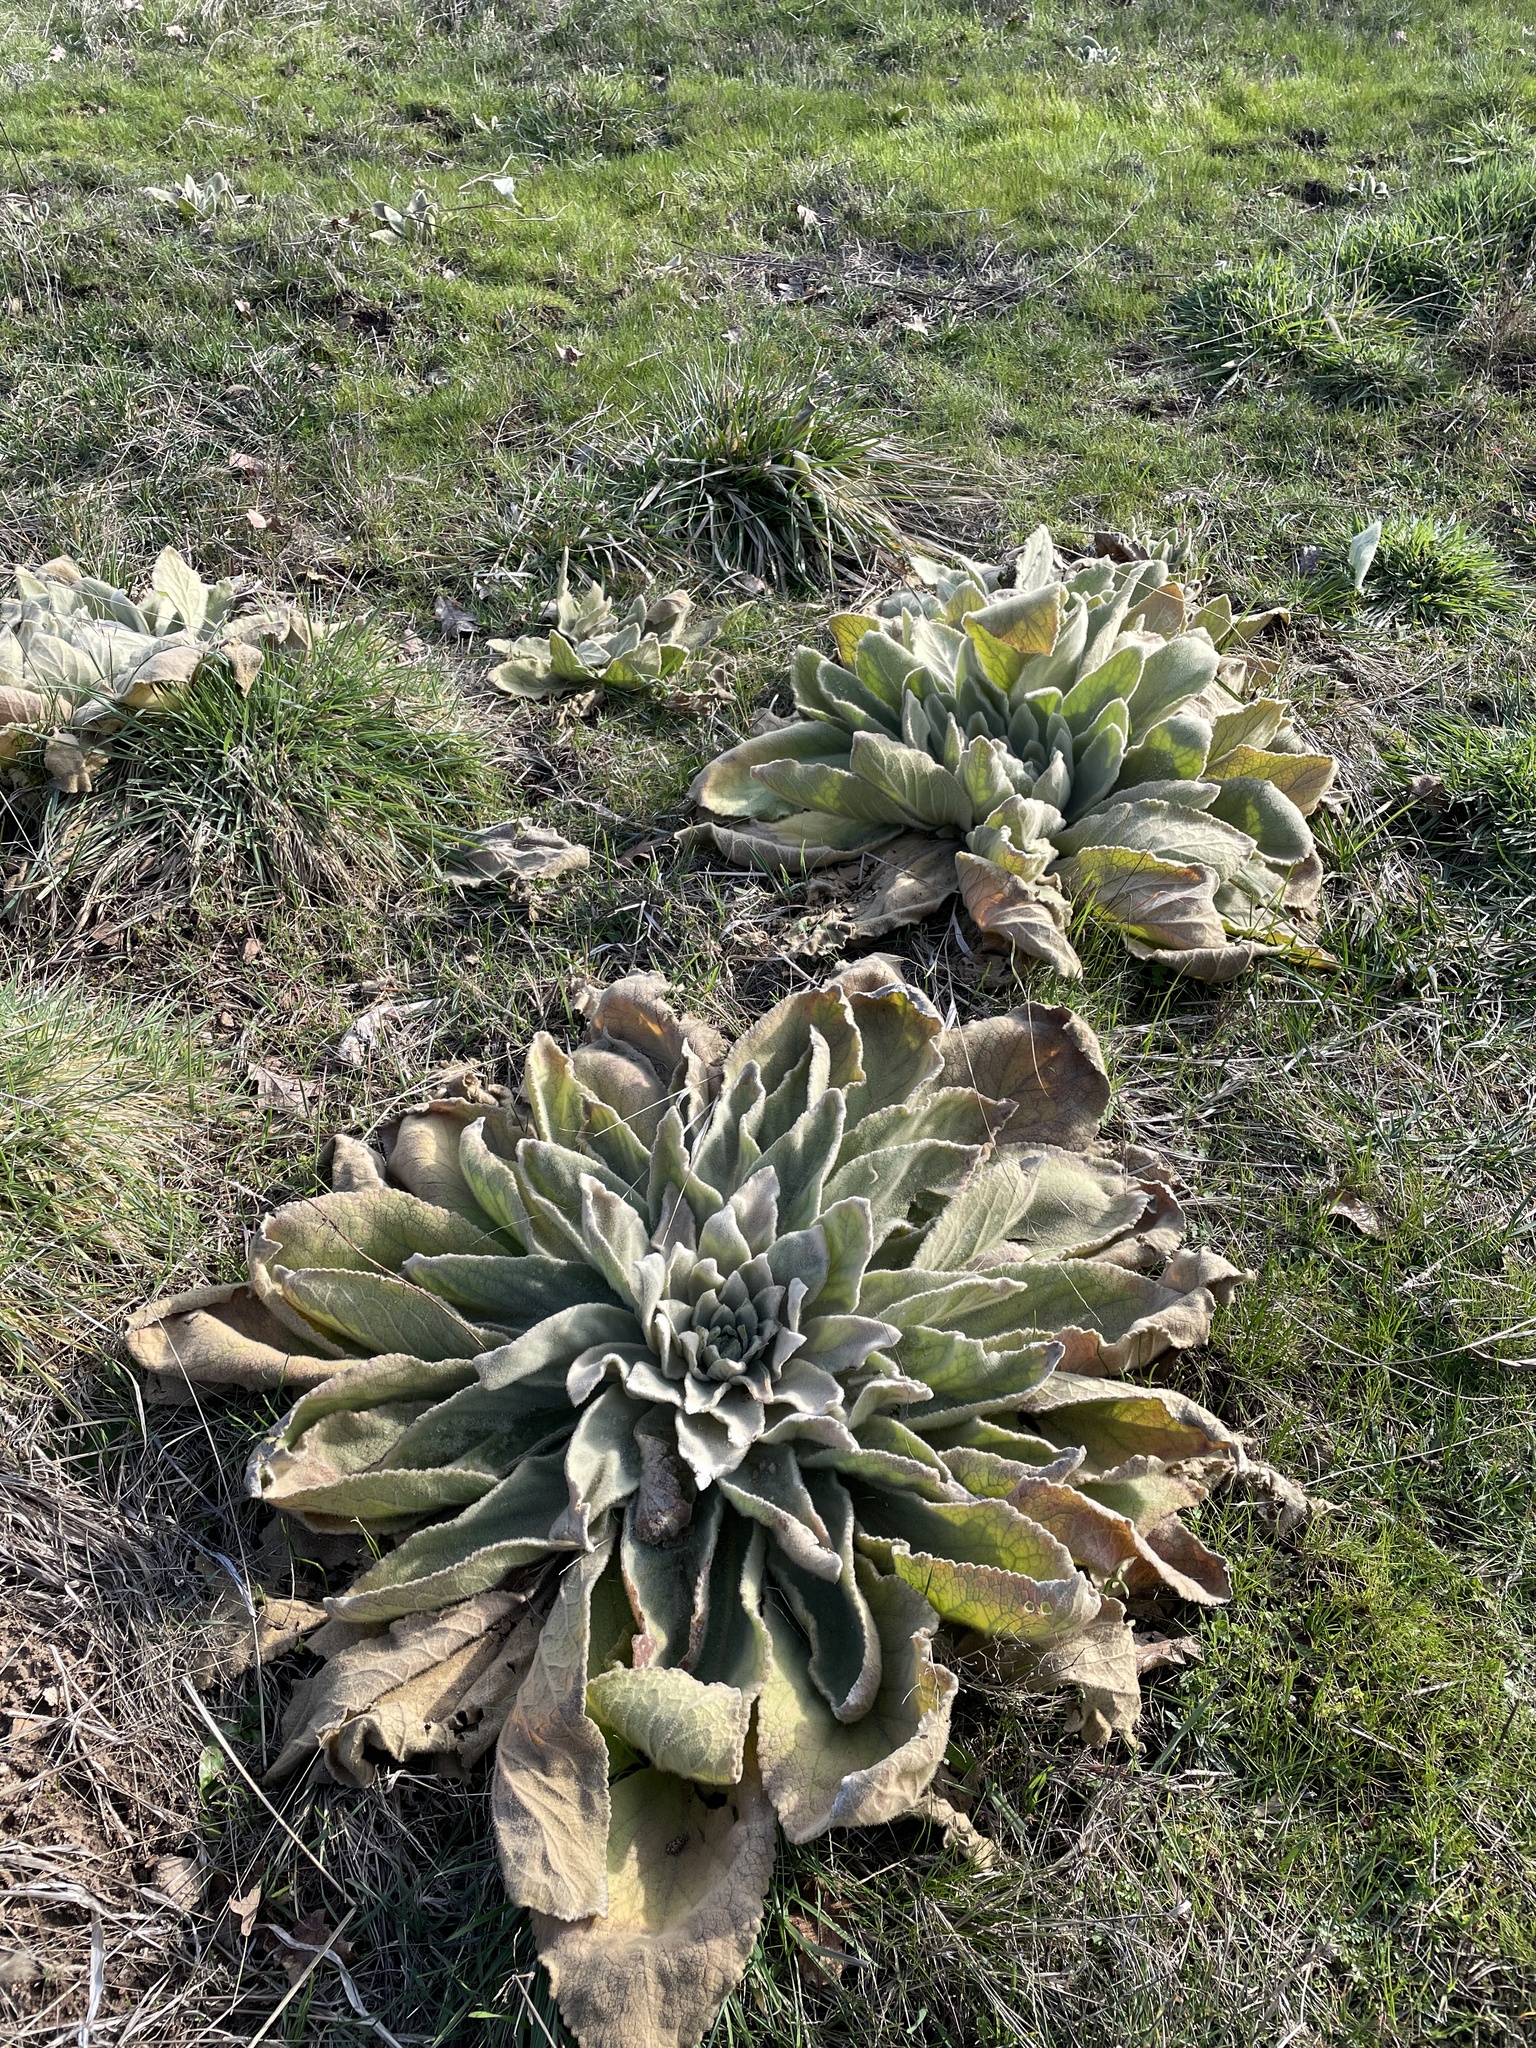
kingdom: Plantae
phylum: Tracheophyta
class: Magnoliopsida
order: Lamiales
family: Scrophulariaceae
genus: Verbascum
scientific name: Verbascum thapsus
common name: Common mullein
